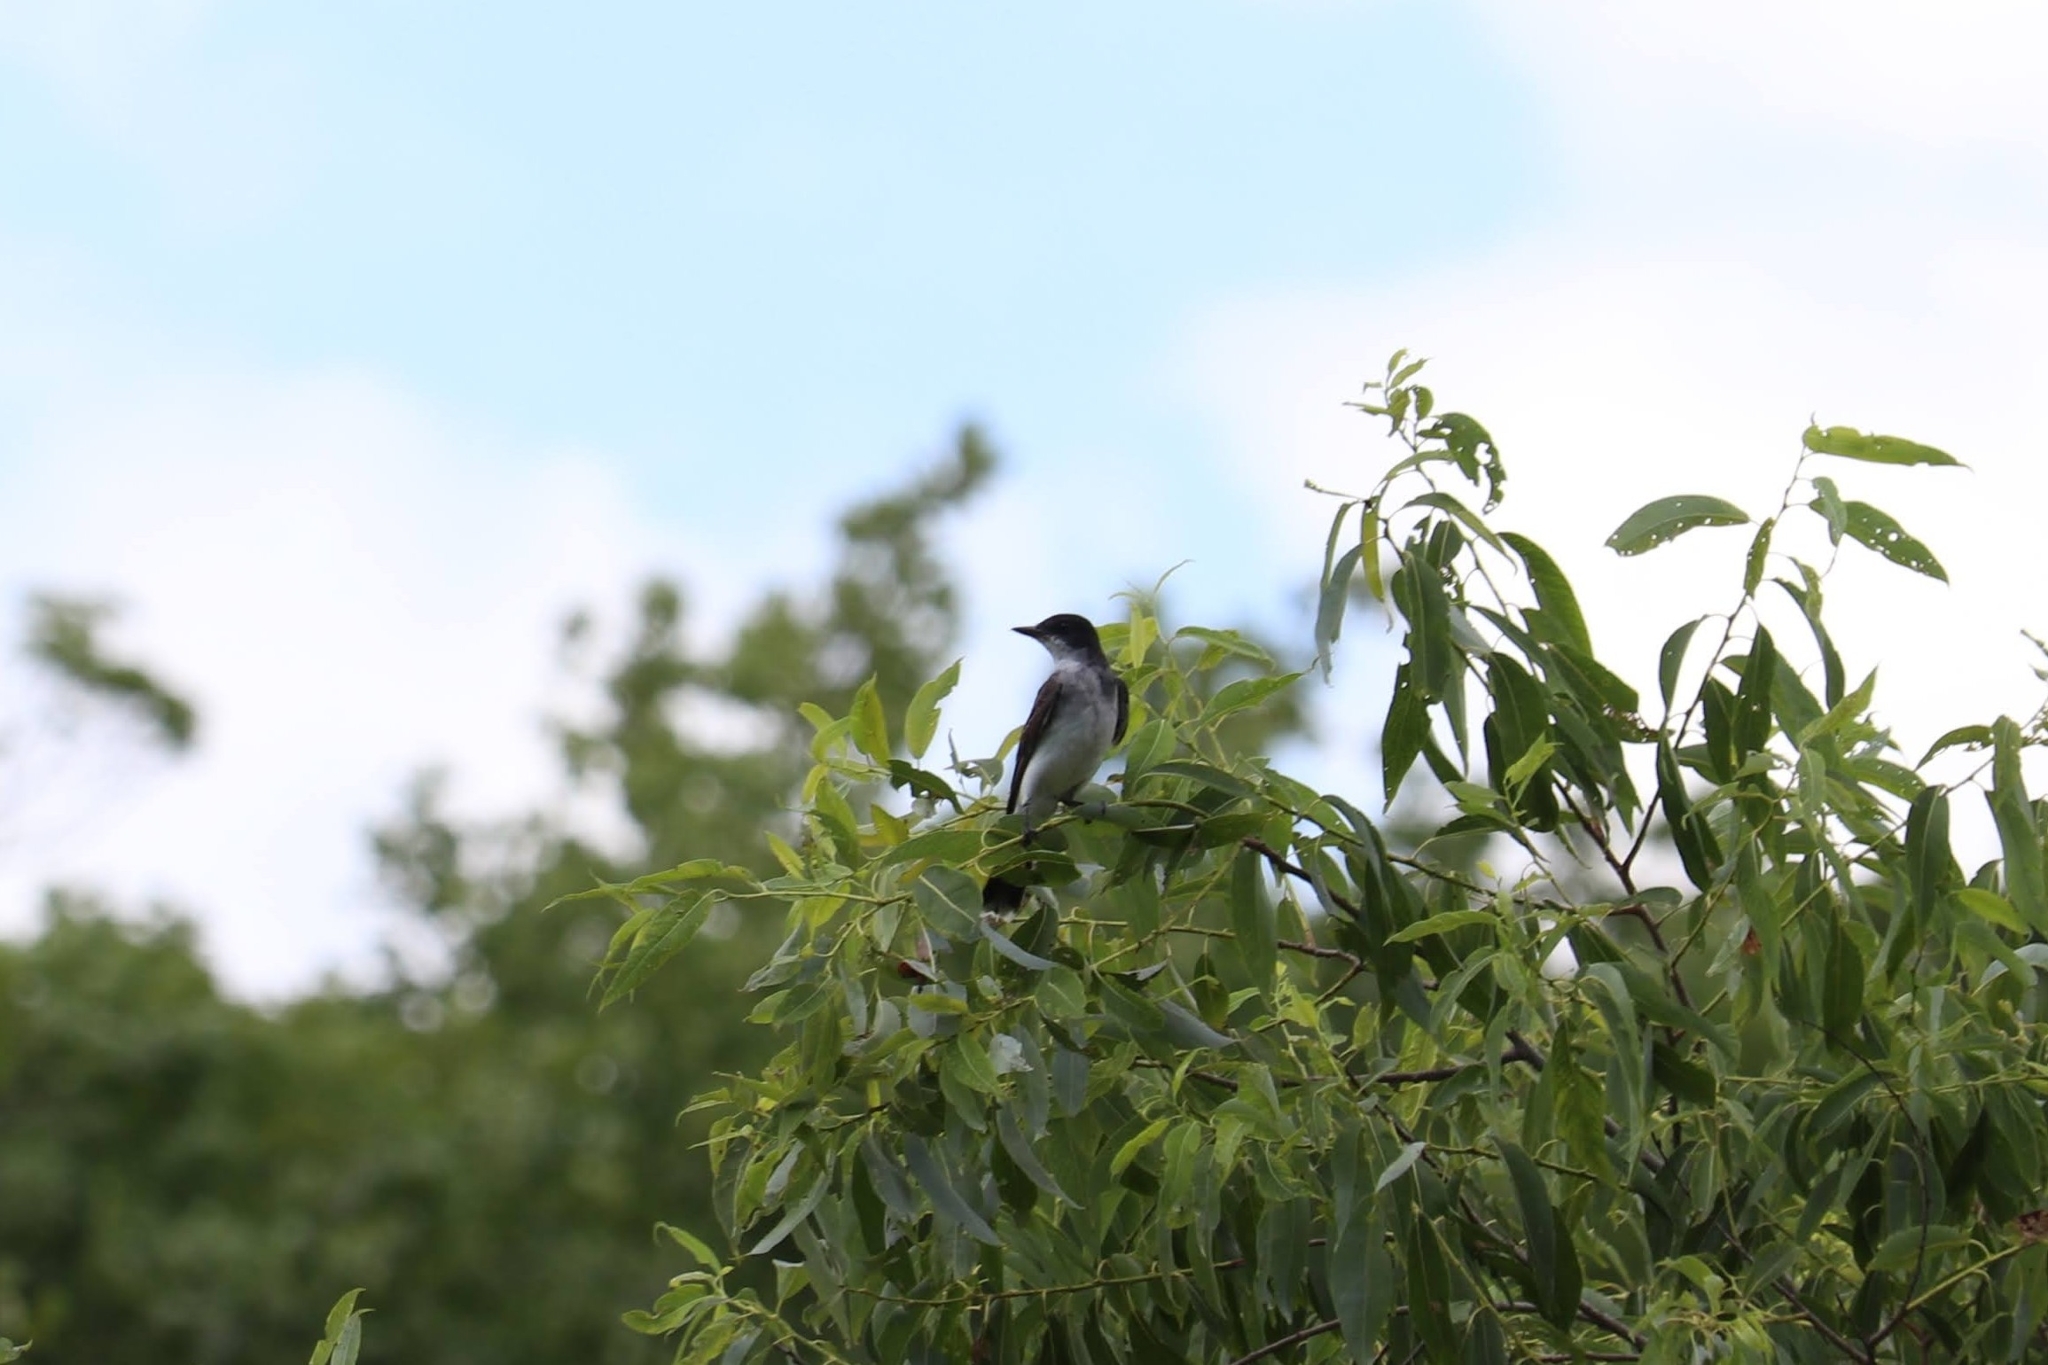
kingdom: Animalia
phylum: Chordata
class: Aves
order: Passeriformes
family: Tyrannidae
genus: Tyrannus
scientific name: Tyrannus tyrannus
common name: Eastern kingbird
